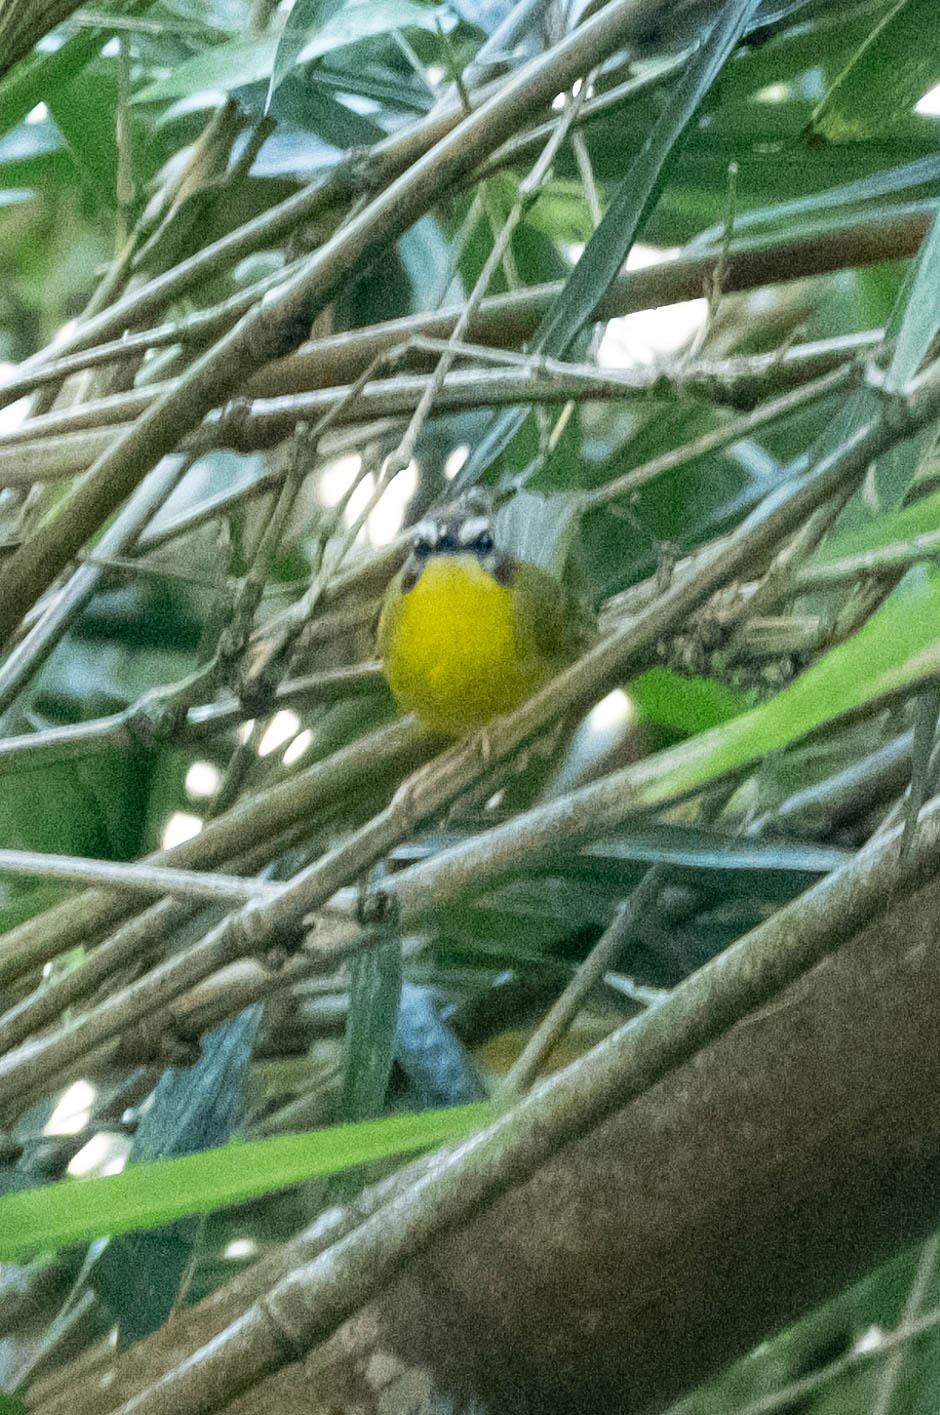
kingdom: Animalia
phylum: Chordata
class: Aves
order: Passeriformes
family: Parulidae
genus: Basileuterus
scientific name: Basileuterus rufifrons
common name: Rufous-capped warbler
